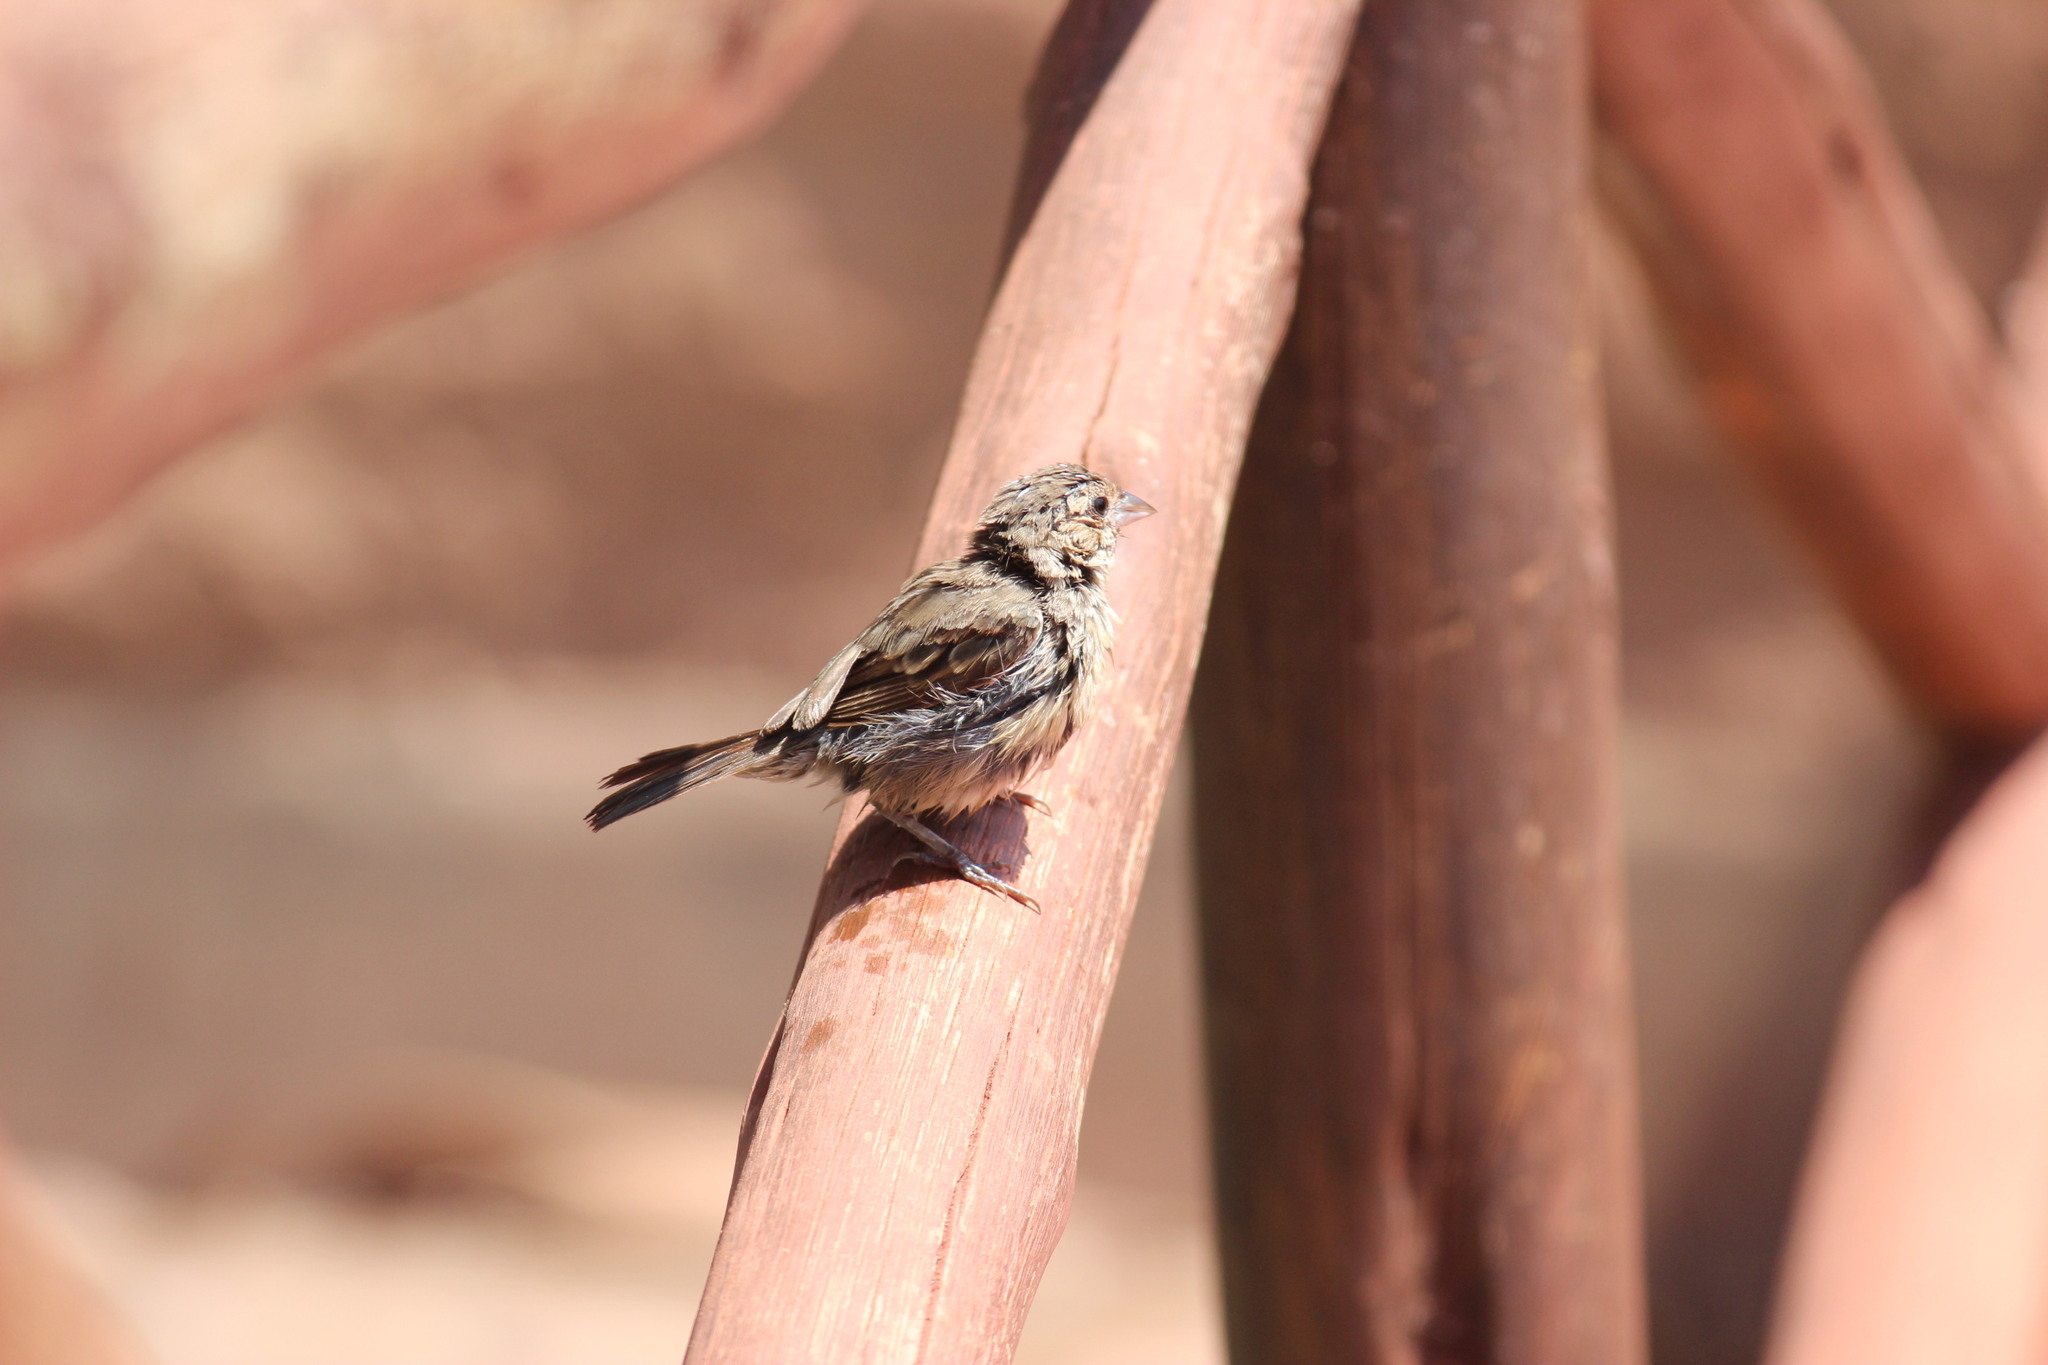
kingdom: Animalia
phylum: Chordata
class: Aves
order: Passeriformes
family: Passeridae
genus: Passer
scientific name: Passer domesticus
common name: House sparrow
